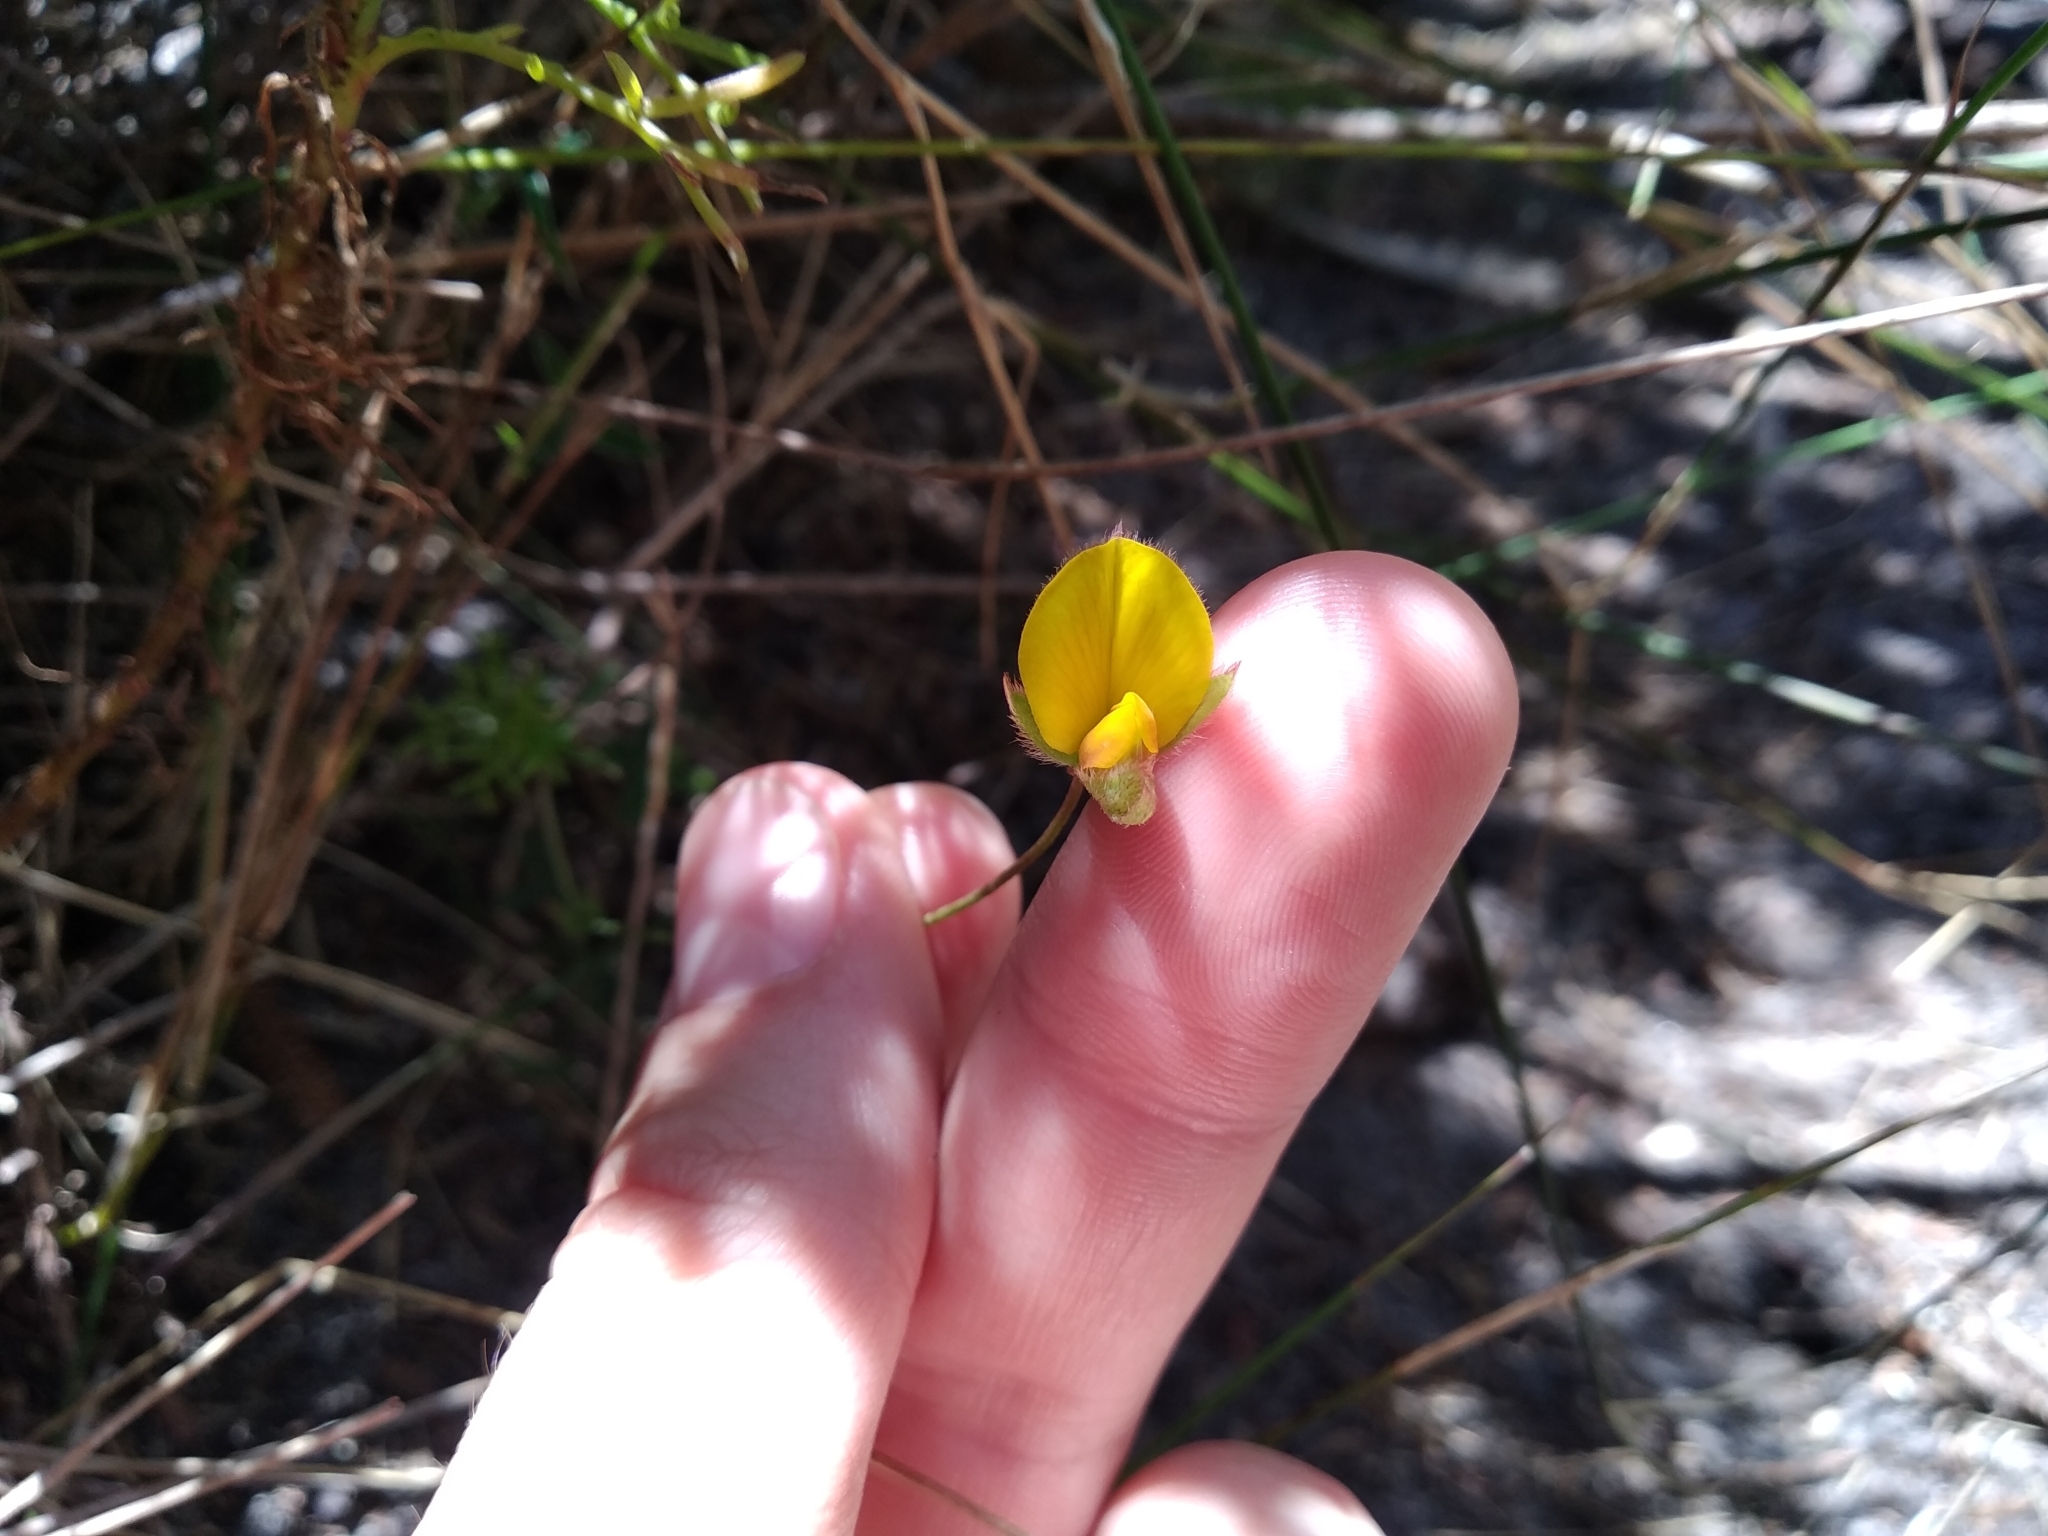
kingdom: Plantae
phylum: Tracheophyta
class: Magnoliopsida
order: Fabales
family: Fabaceae
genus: Argyrolobium
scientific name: Argyrolobium lunare
